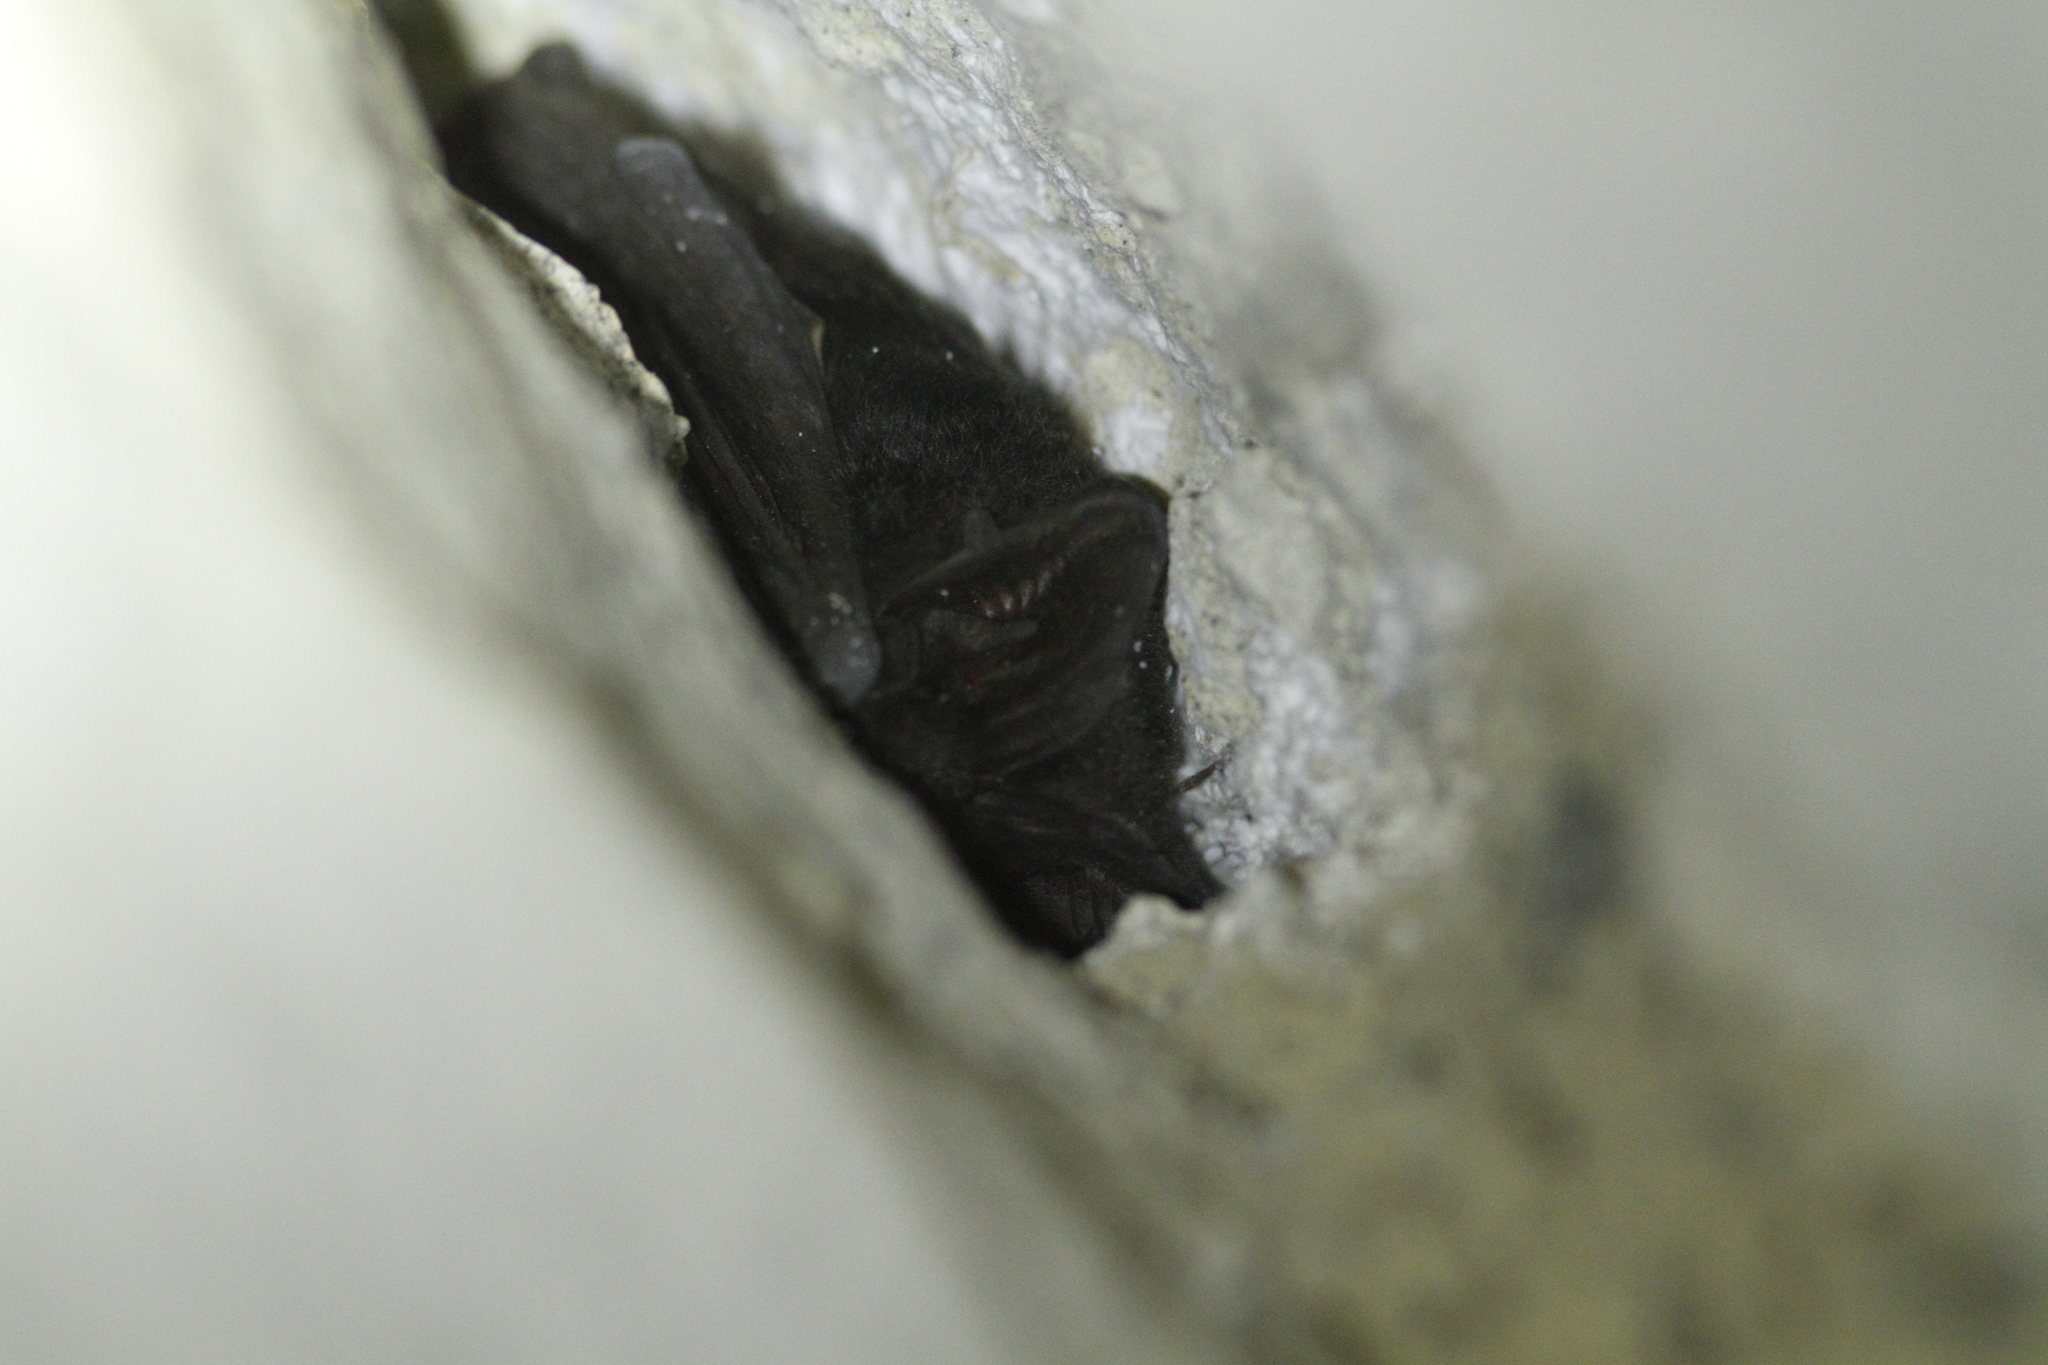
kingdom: Animalia
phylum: Chordata
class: Mammalia
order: Chiroptera
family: Vespertilionidae
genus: Barbastella
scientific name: Barbastella barbastellus
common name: Western barbastelle
